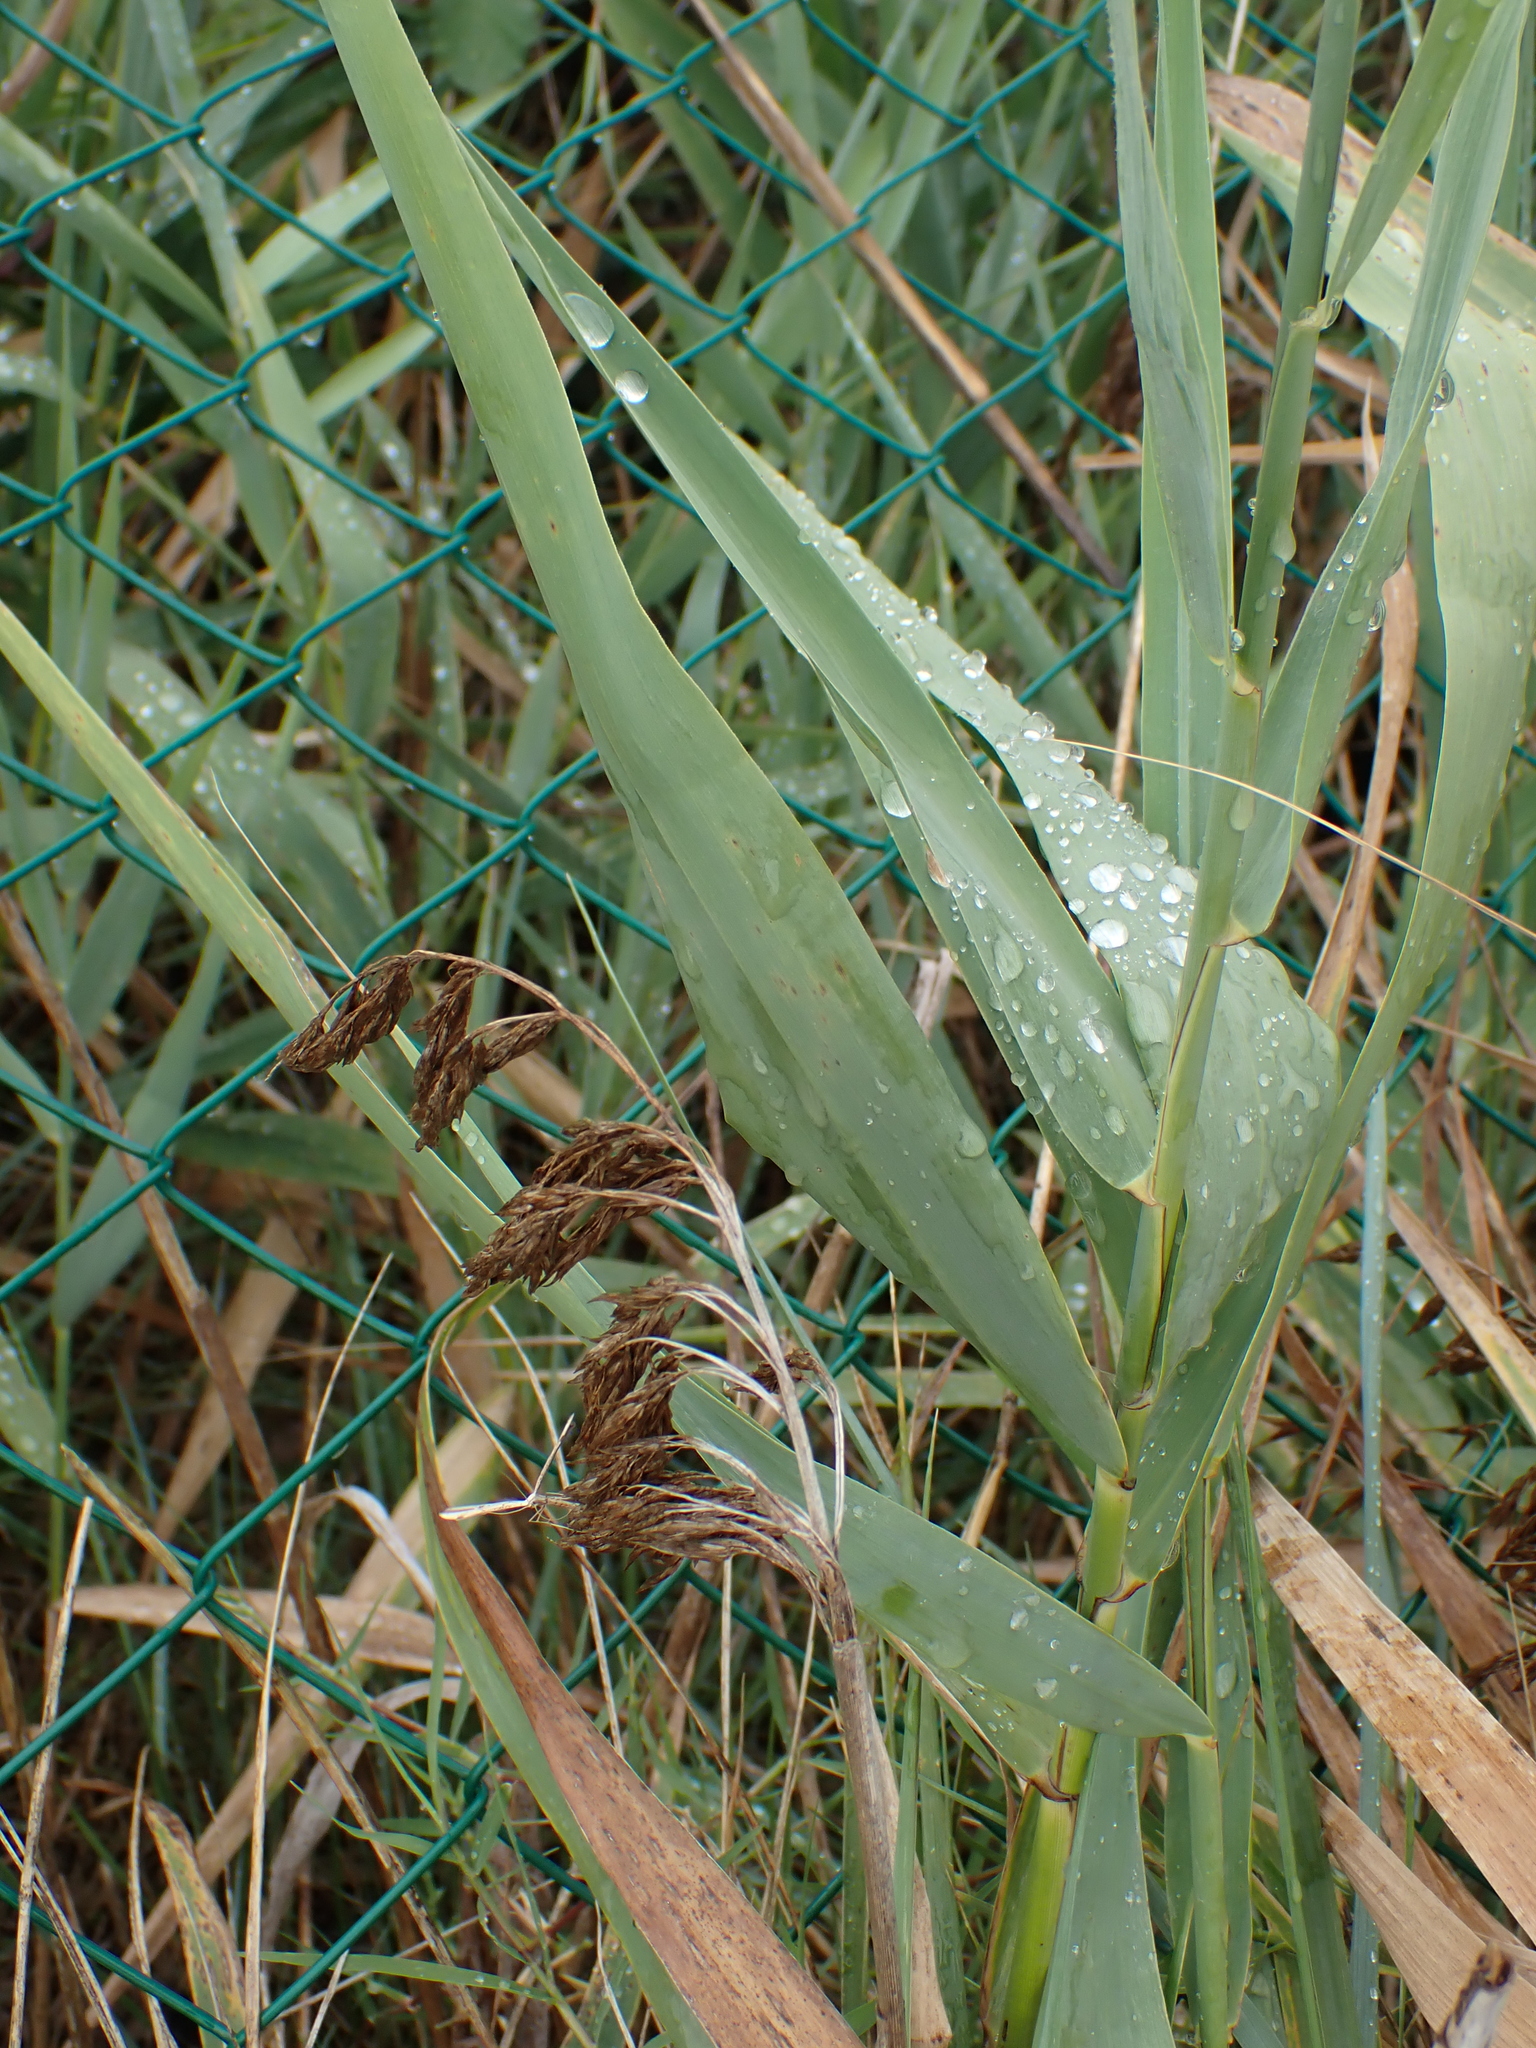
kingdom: Plantae
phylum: Tracheophyta
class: Liliopsida
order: Poales
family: Poaceae
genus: Phragmites
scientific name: Phragmites australis
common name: Common reed
